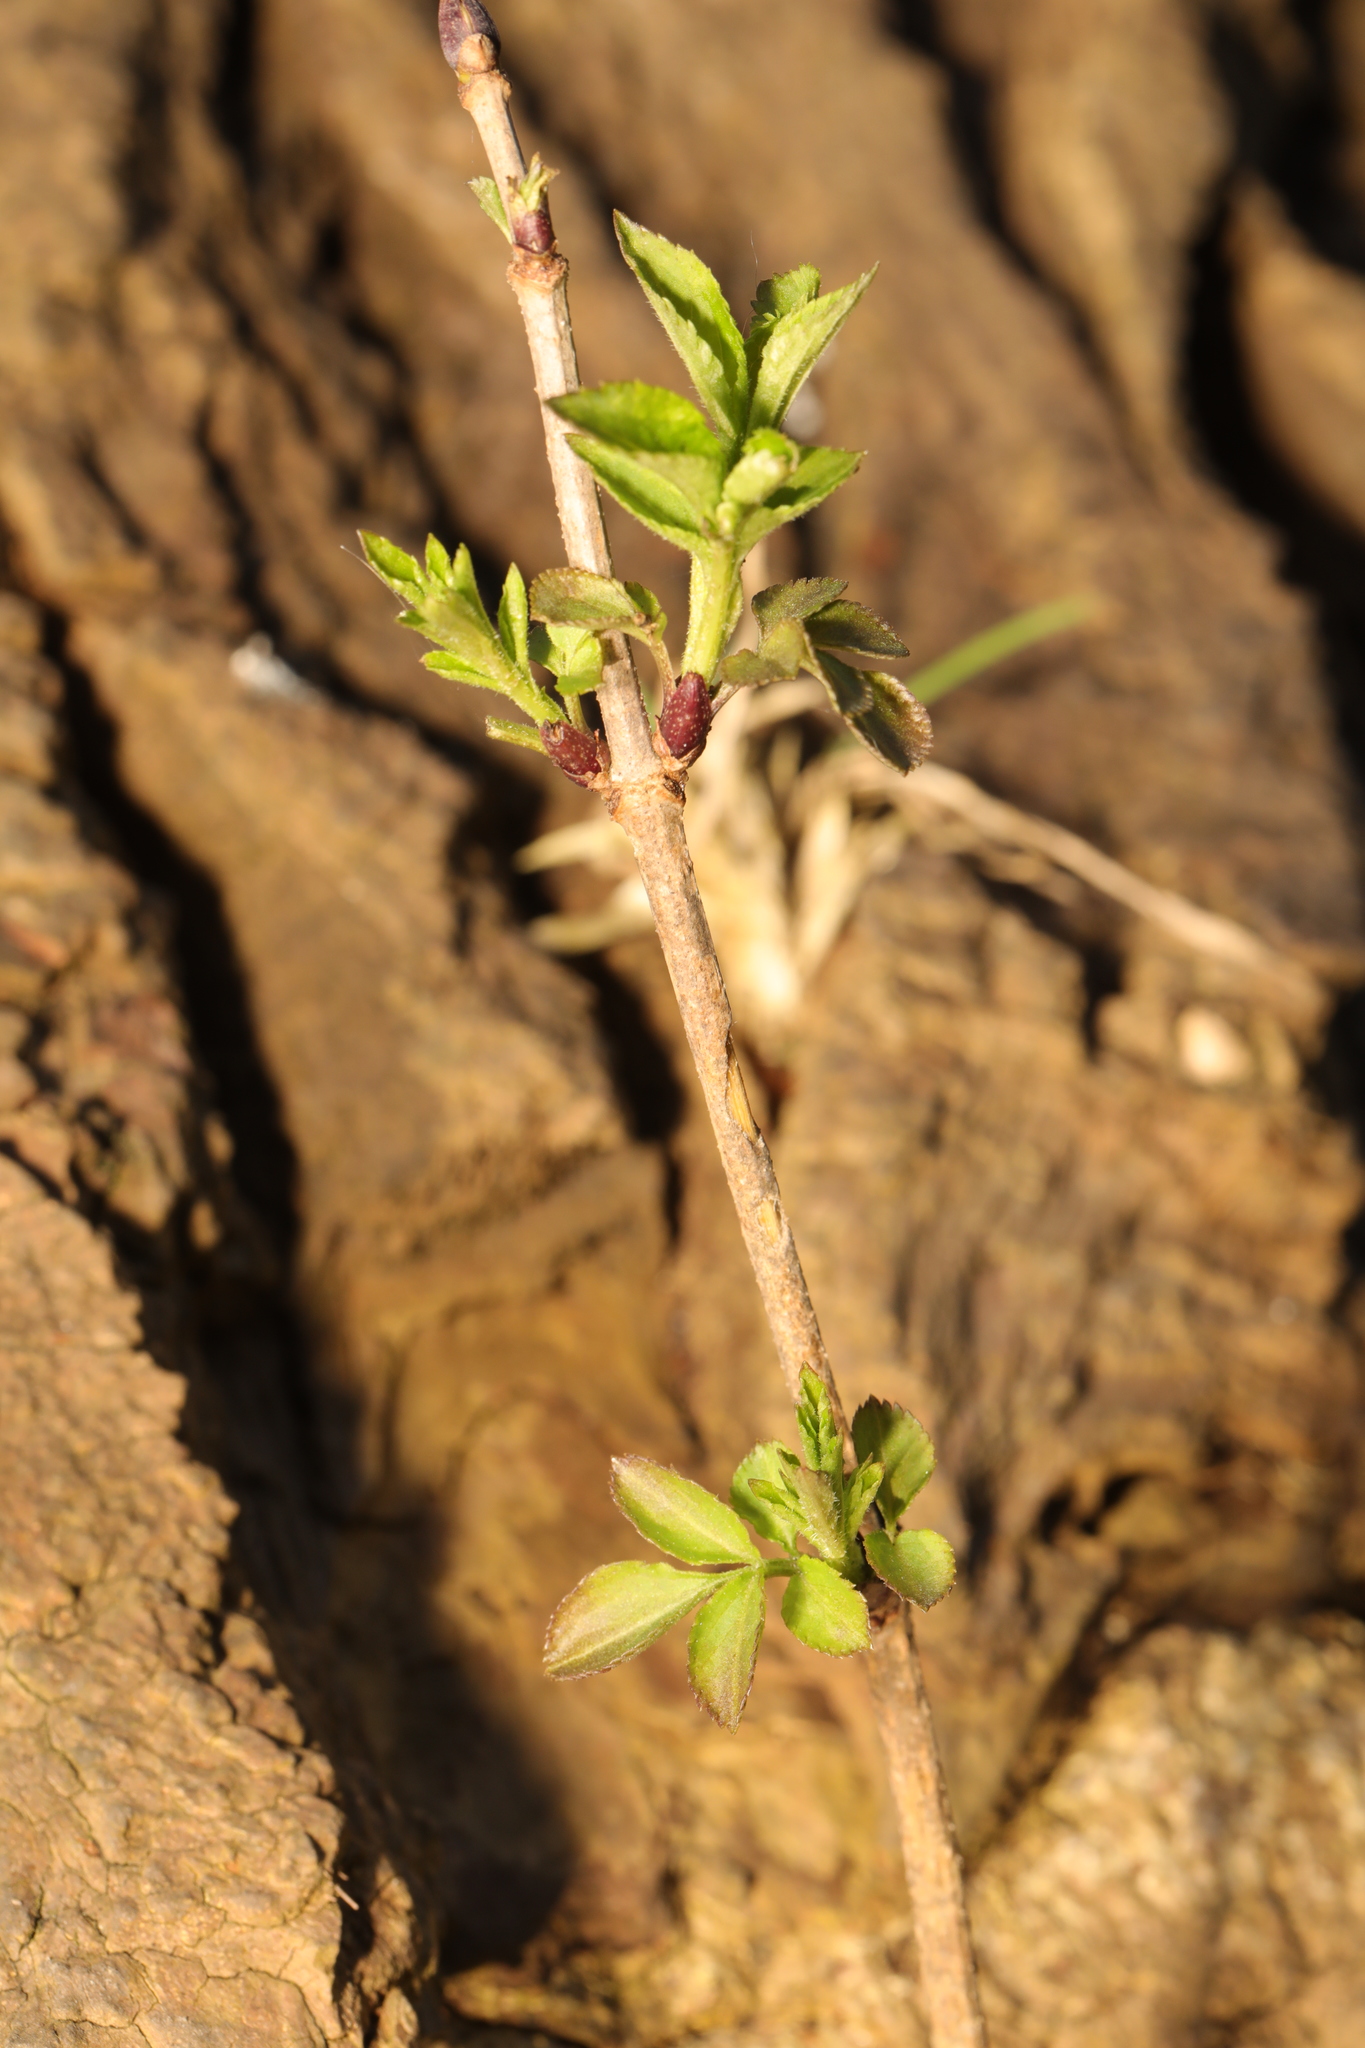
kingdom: Plantae
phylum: Tracheophyta
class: Magnoliopsida
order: Dipsacales
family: Viburnaceae
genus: Sambucus
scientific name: Sambucus nigra
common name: Elder
